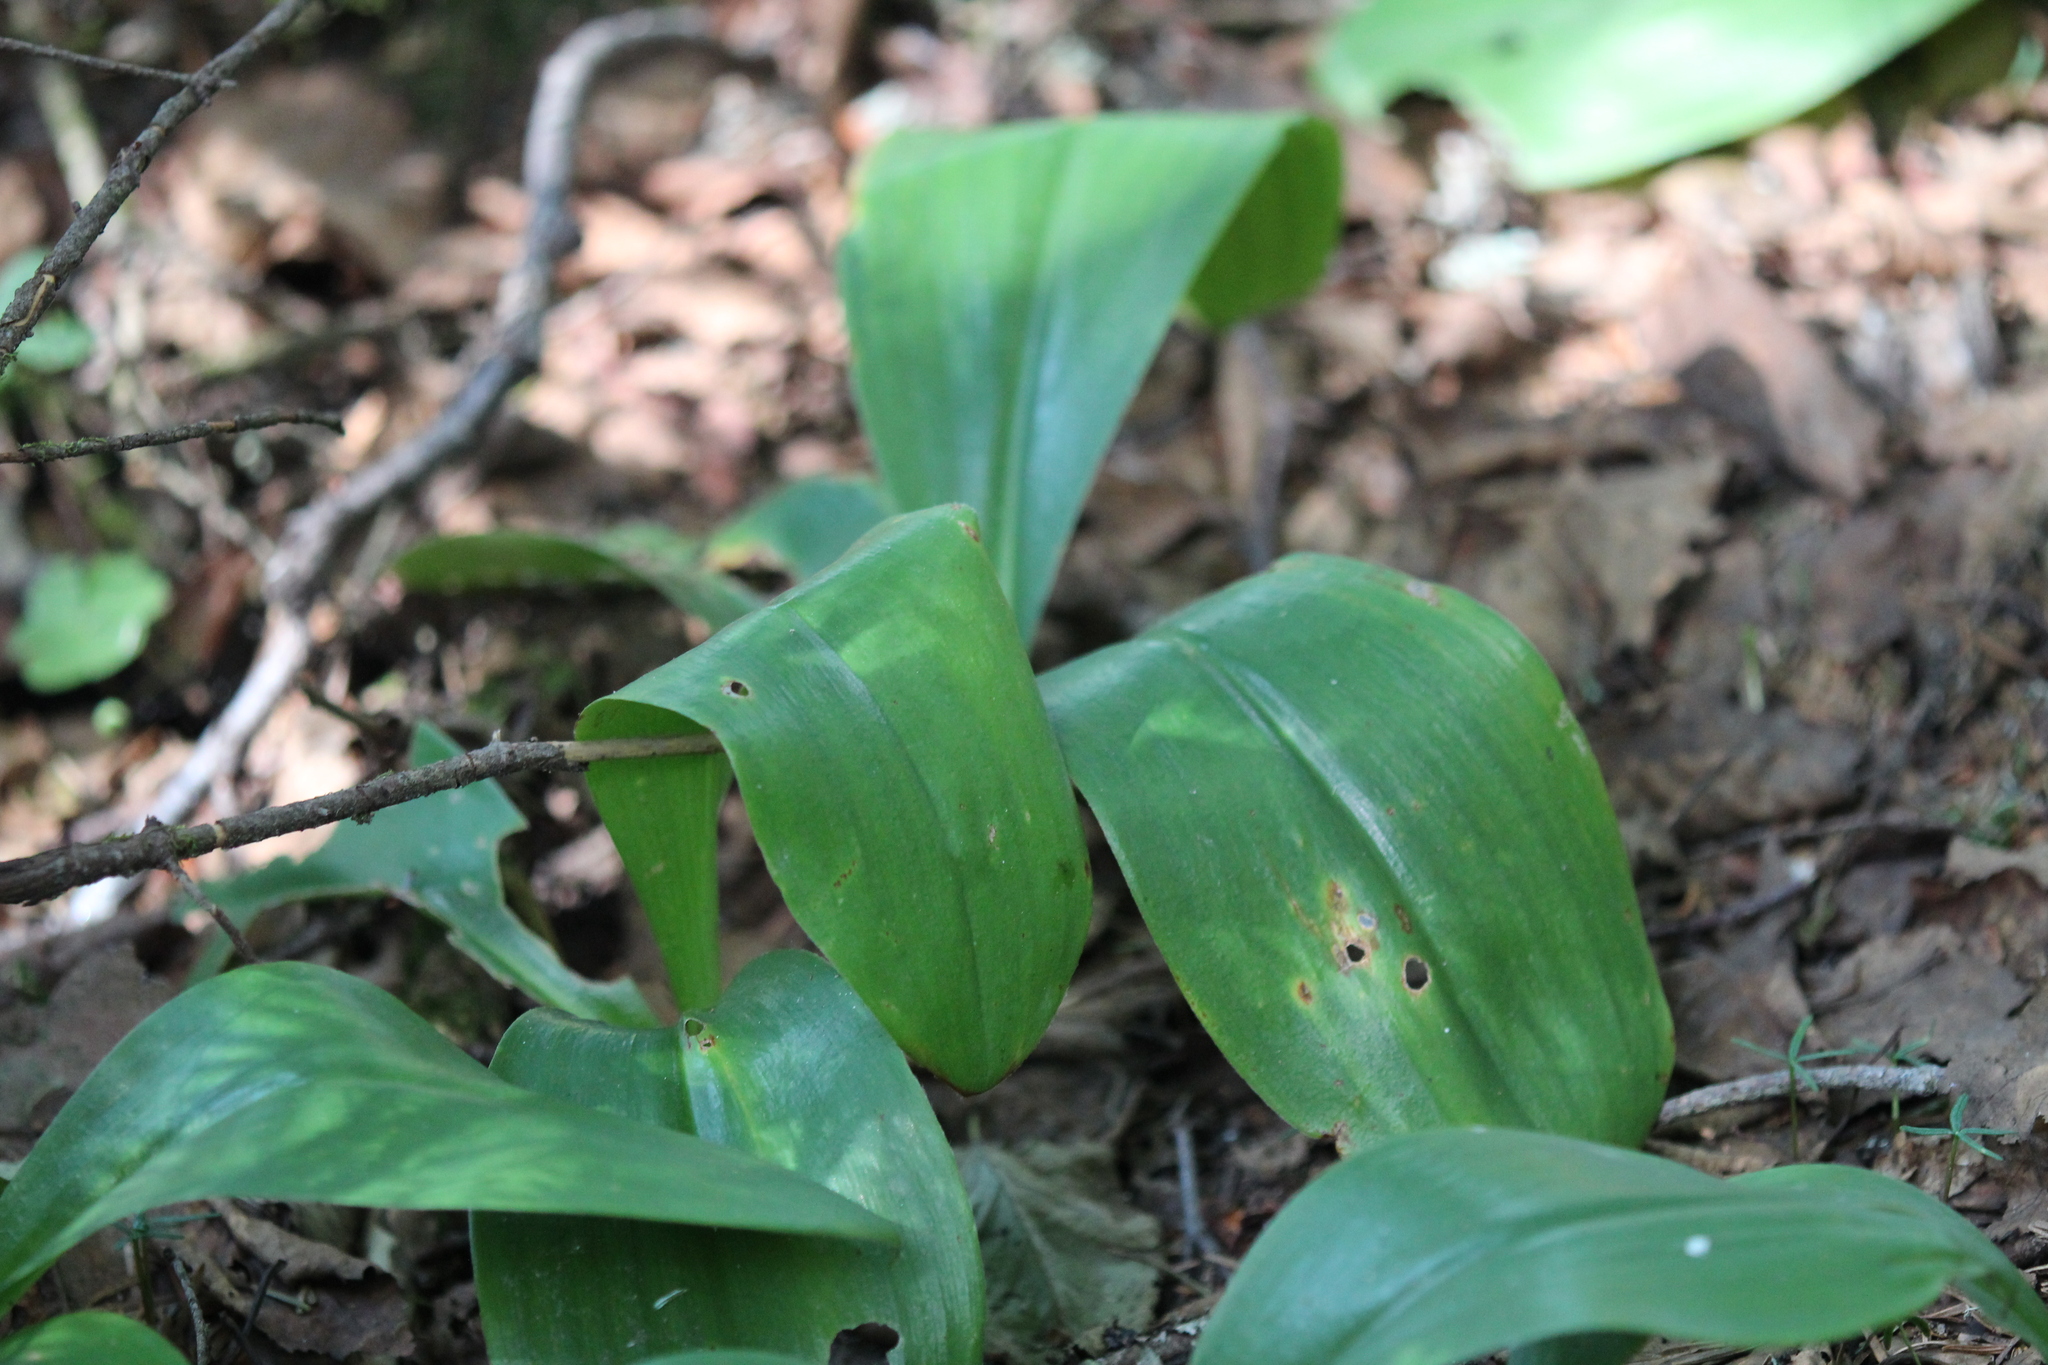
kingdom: Plantae
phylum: Tracheophyta
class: Liliopsida
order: Liliales
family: Liliaceae
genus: Clintonia
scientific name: Clintonia borealis
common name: Yellow clintonia
